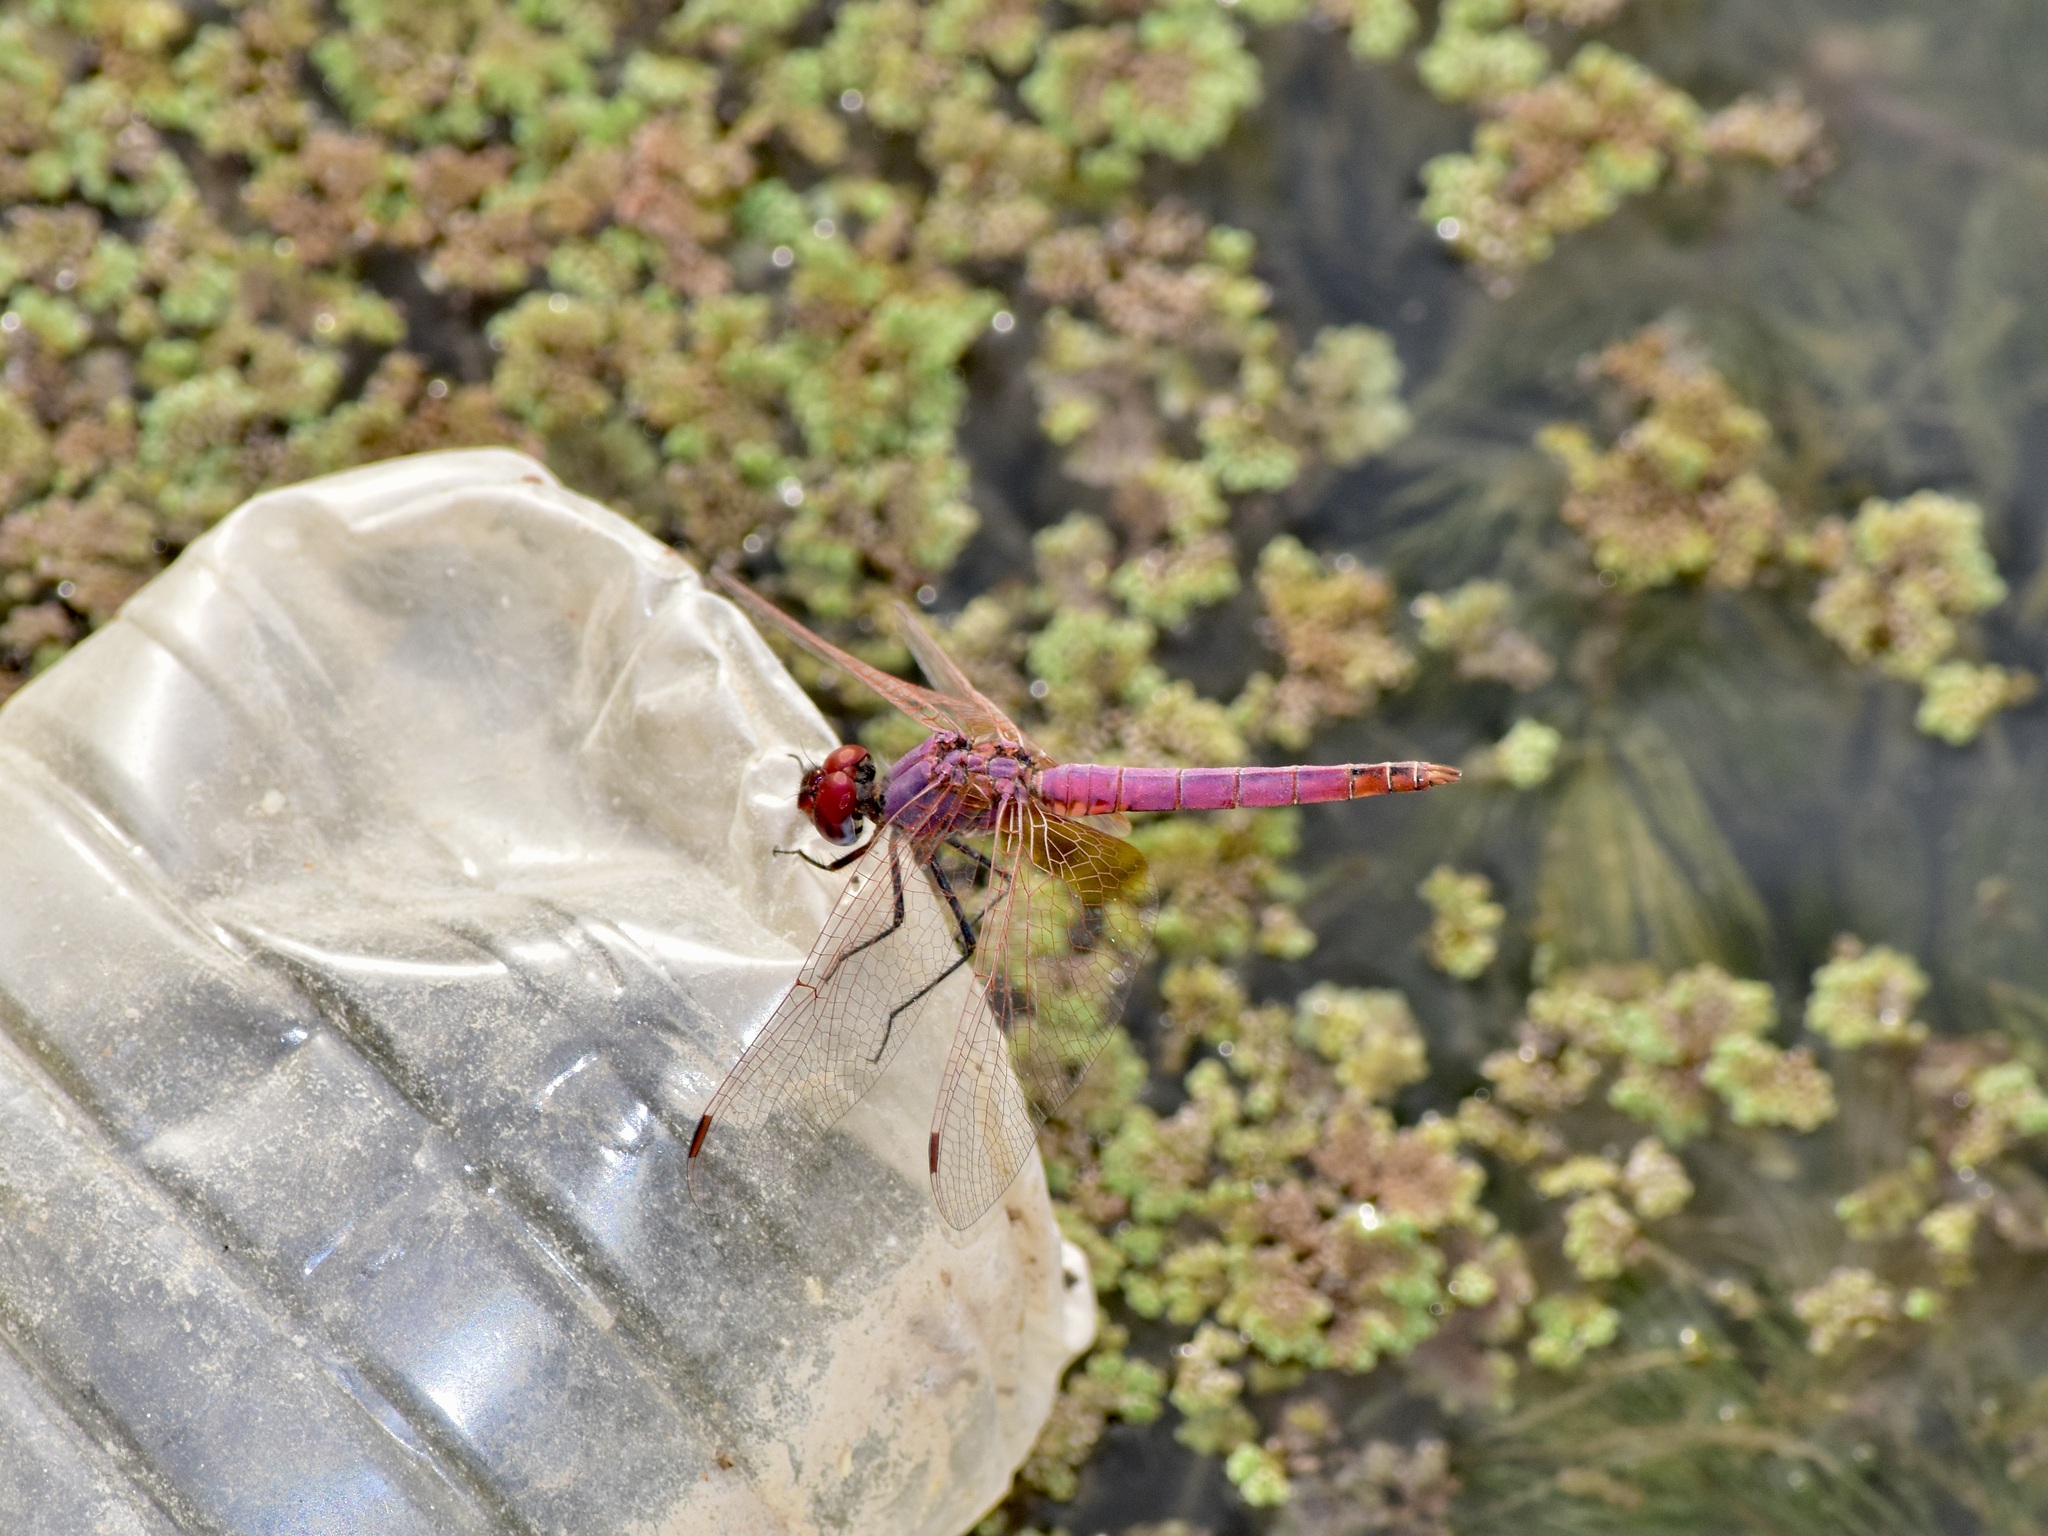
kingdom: Animalia
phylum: Arthropoda
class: Insecta
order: Odonata
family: Libellulidae
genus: Trithemis
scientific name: Trithemis annulata
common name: Violet dropwing
